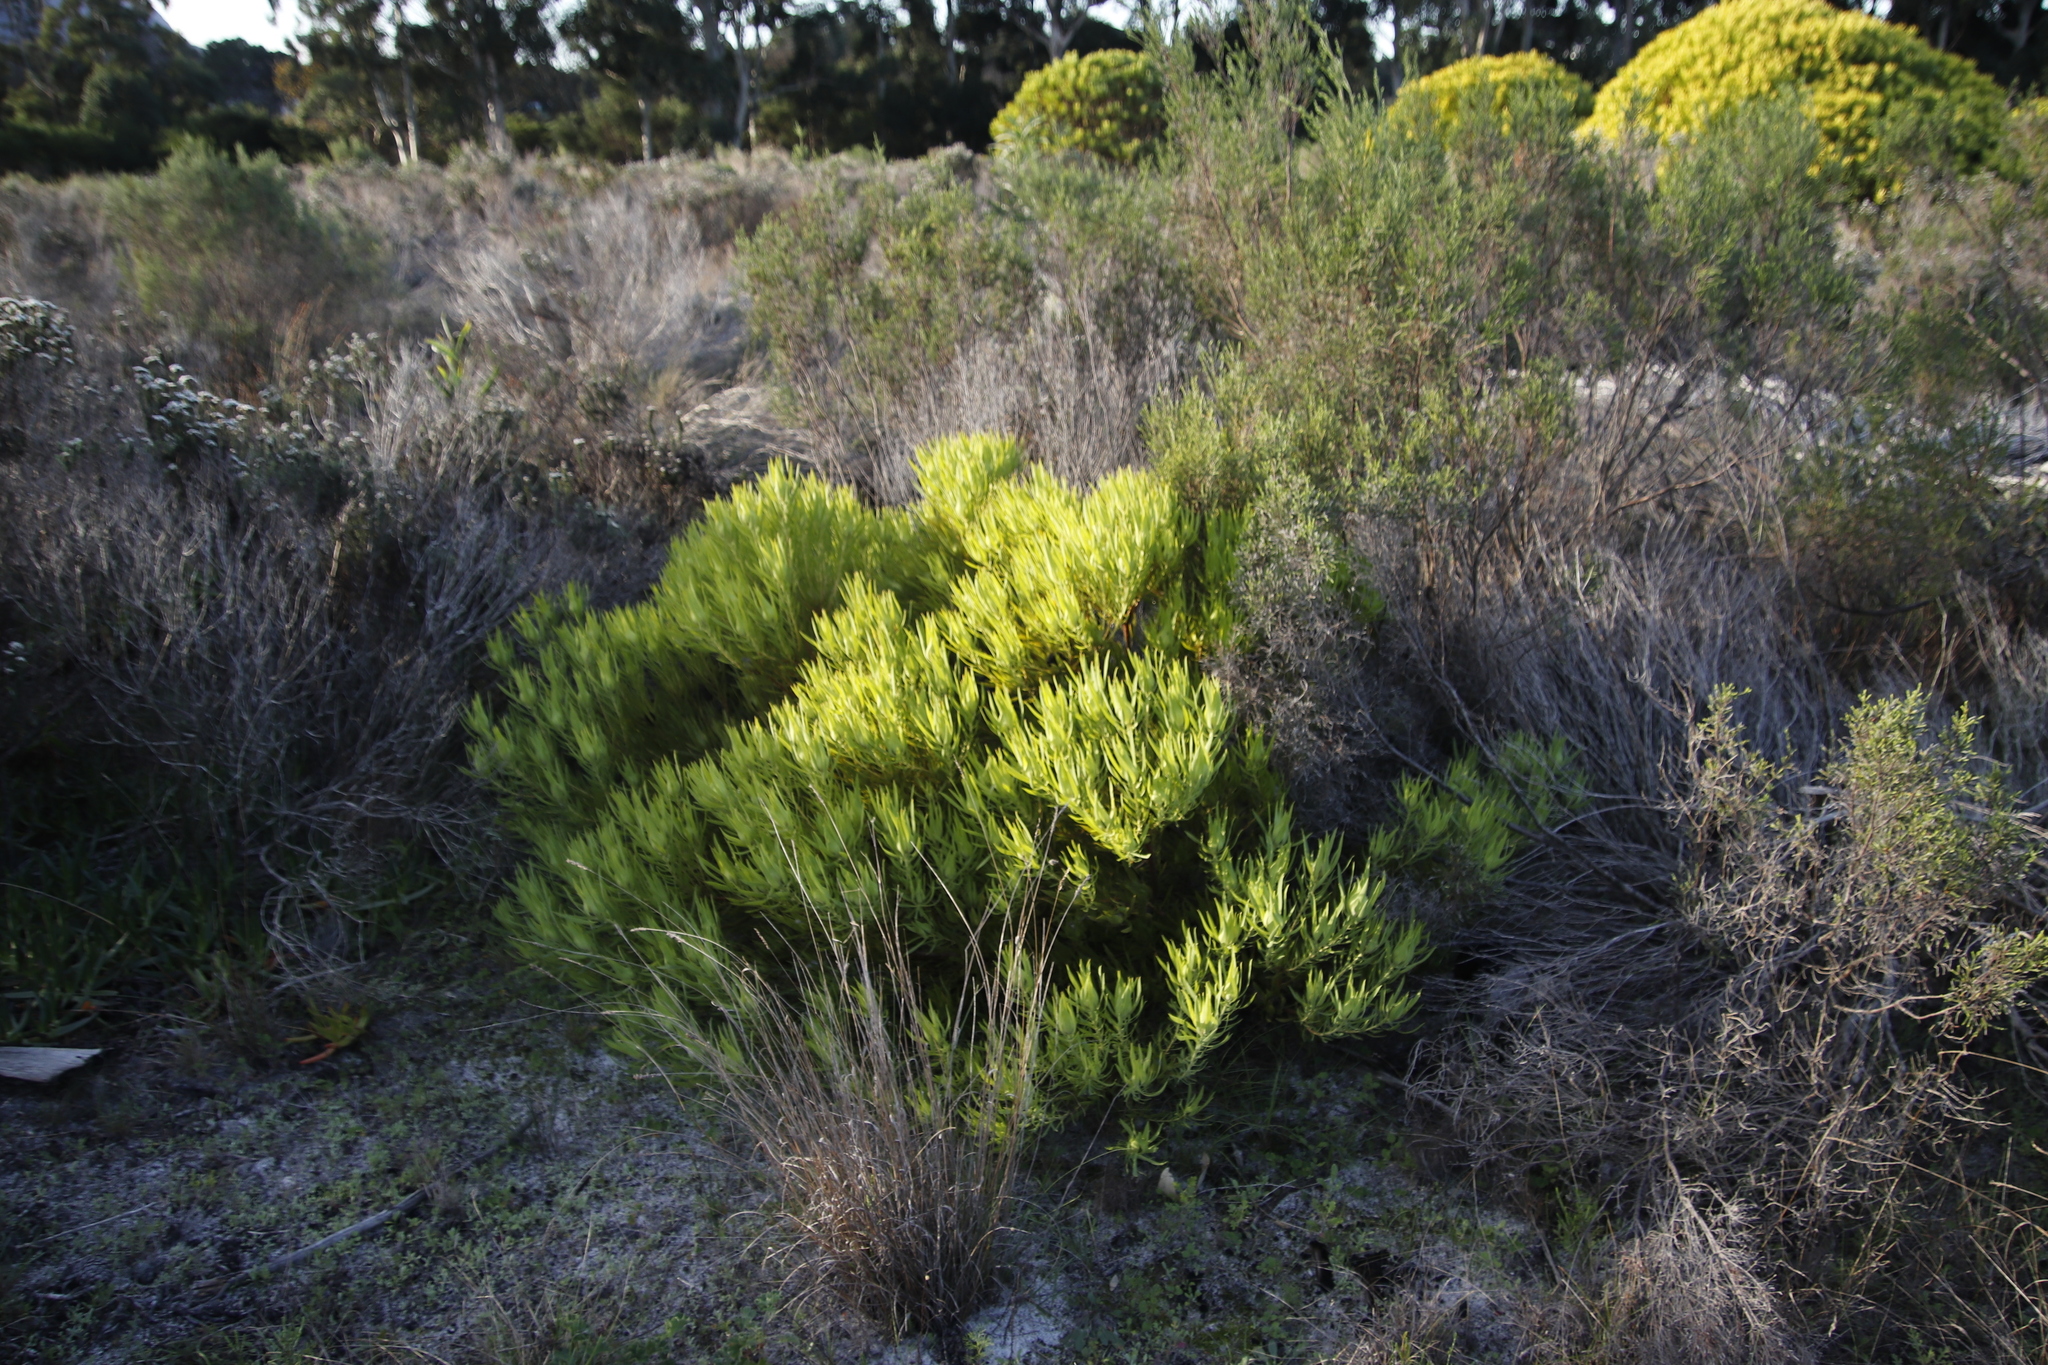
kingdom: Plantae
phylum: Tracheophyta
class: Magnoliopsida
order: Proteales
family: Proteaceae
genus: Leucadendron
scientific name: Leucadendron salignum
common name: Common sunshine conebush
